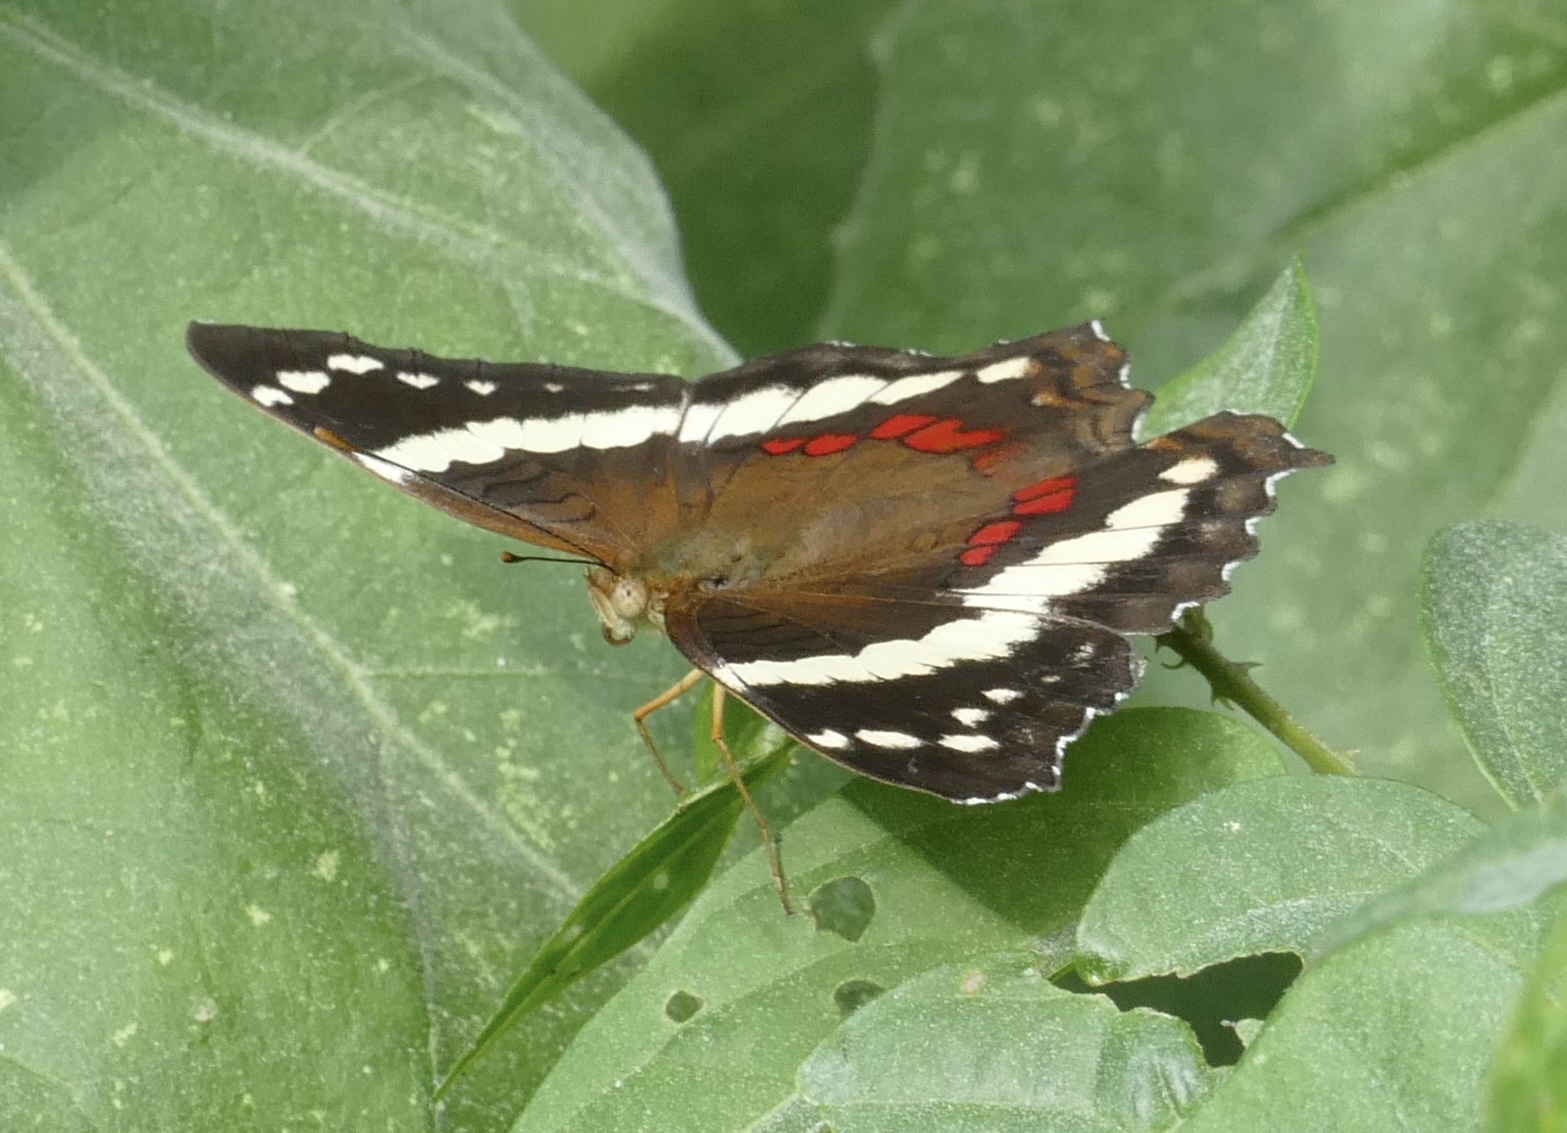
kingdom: Animalia
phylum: Arthropoda
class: Insecta
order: Lepidoptera
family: Nymphalidae
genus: Anartia
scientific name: Anartia fatima
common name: Banded peacock
